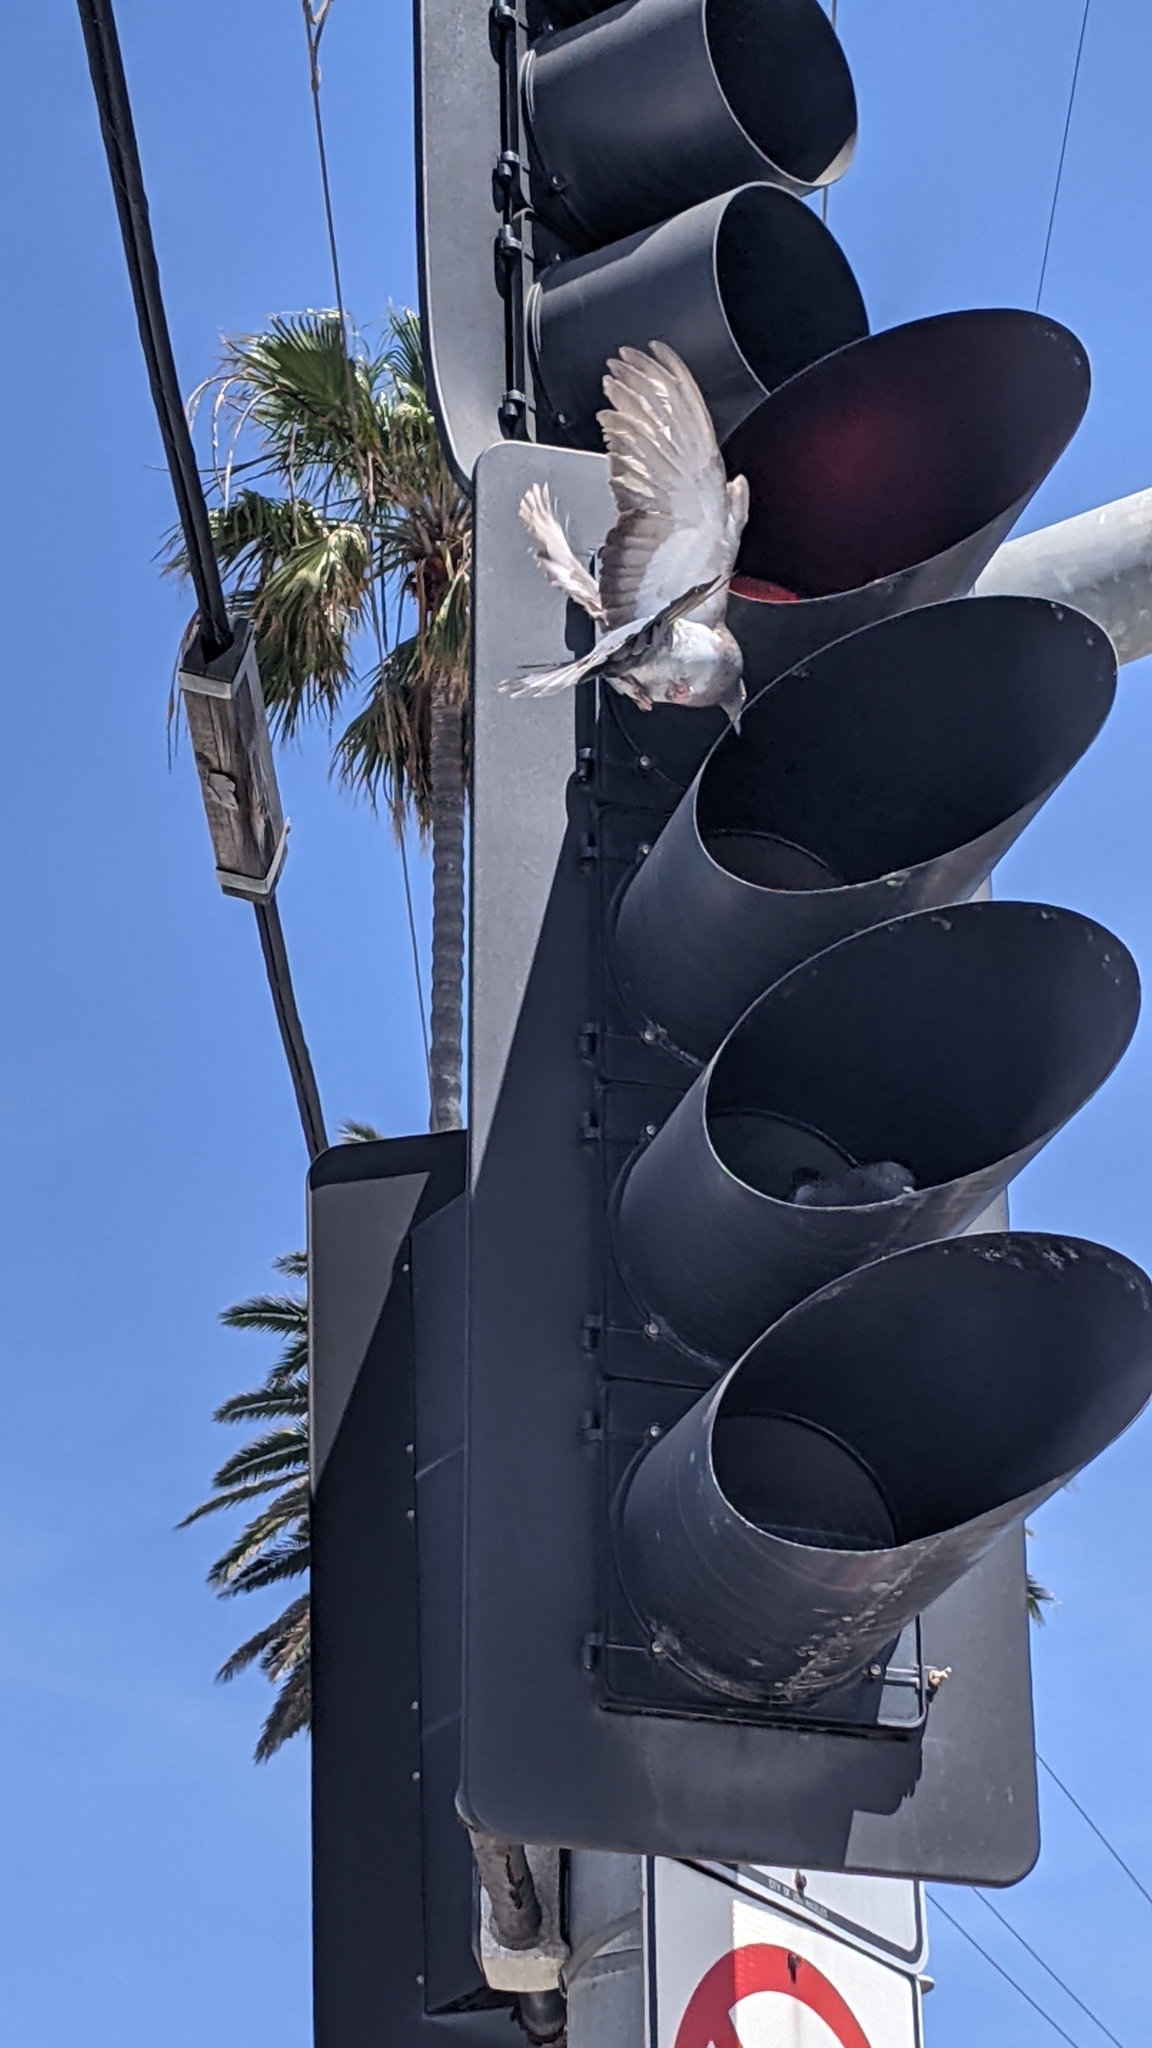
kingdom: Animalia
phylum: Chordata
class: Aves
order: Columbiformes
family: Columbidae
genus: Columba
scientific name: Columba livia
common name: Rock pigeon
